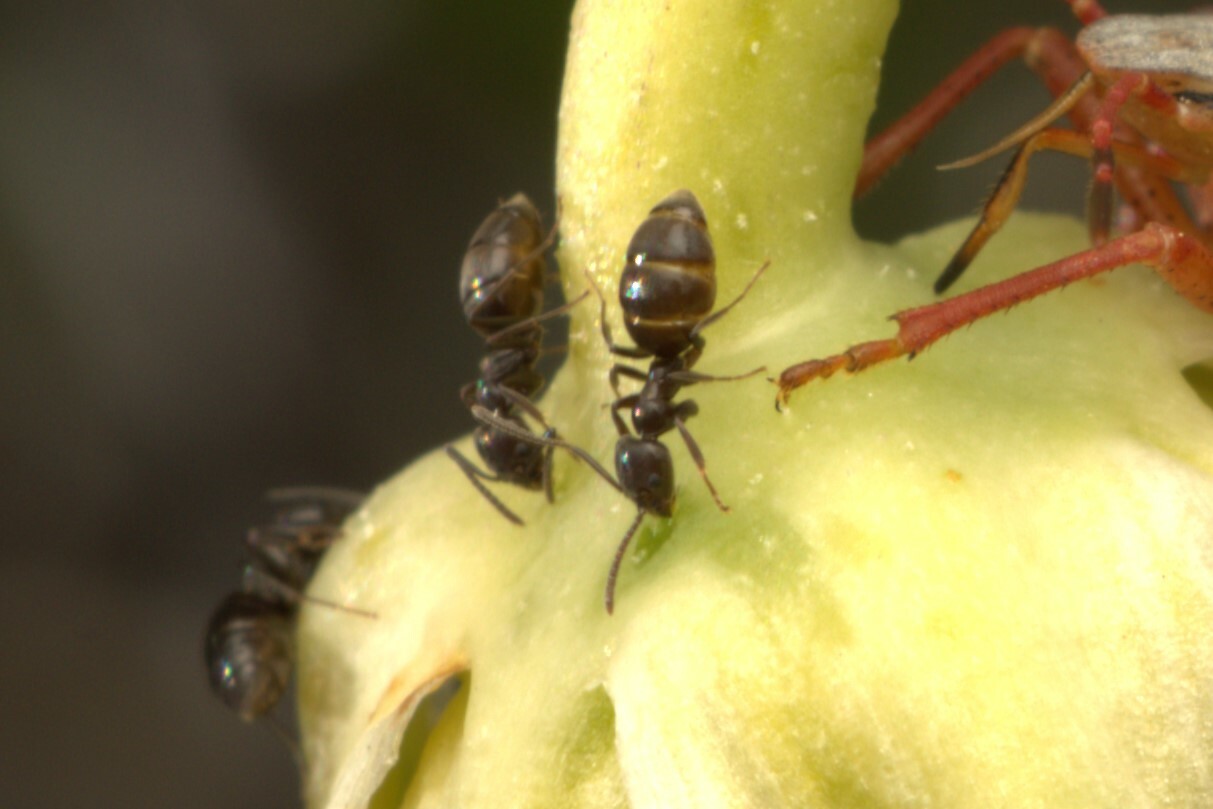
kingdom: Animalia
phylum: Arthropoda
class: Insecta
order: Hymenoptera
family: Formicidae
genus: Tapinoma
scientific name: Tapinoma sessile
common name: Odorous house ant
